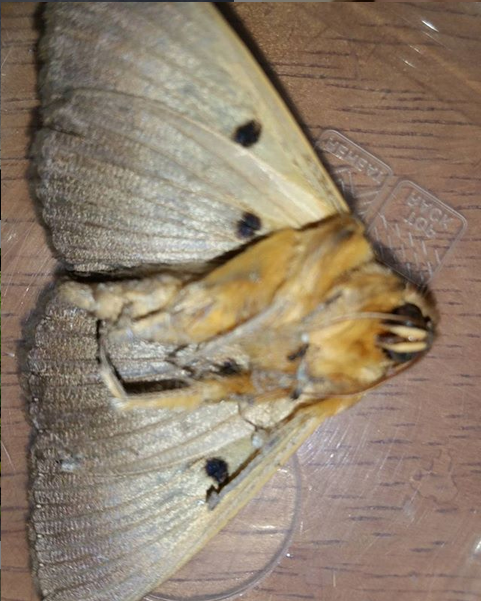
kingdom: Animalia
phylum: Arthropoda
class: Insecta
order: Lepidoptera
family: Erebidae
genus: Dasypodia
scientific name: Dasypodia selenophora
